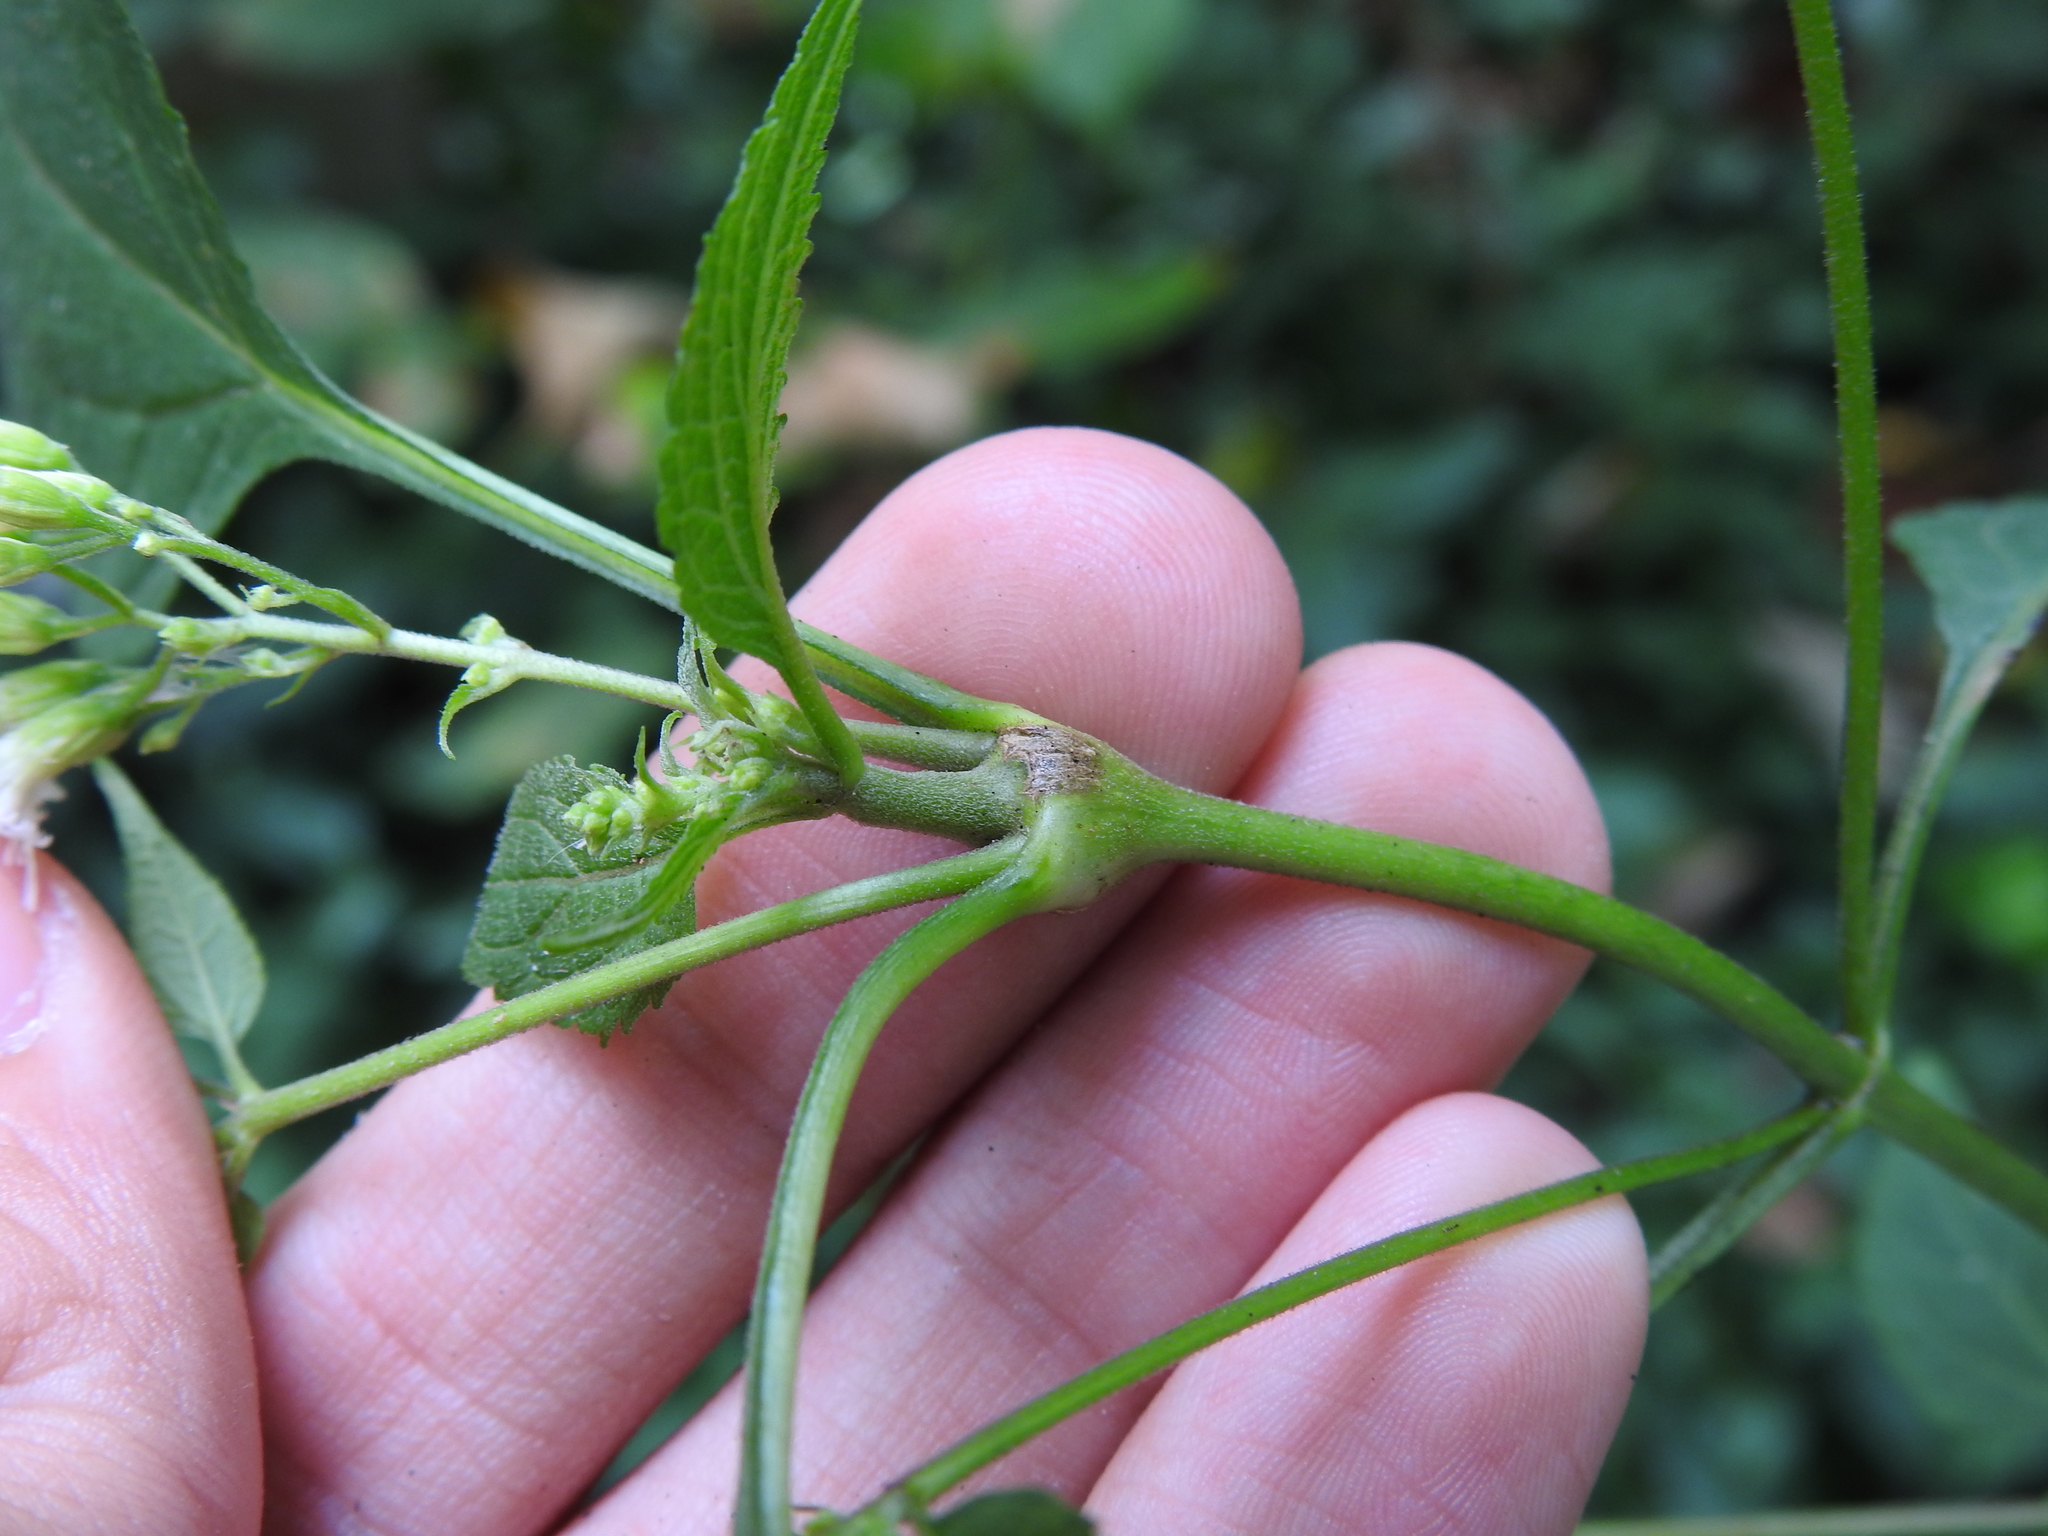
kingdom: Animalia
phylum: Arthropoda
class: Insecta
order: Diptera
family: Cecidomyiidae
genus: Neolasioptera
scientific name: Neolasioptera eupatorii
